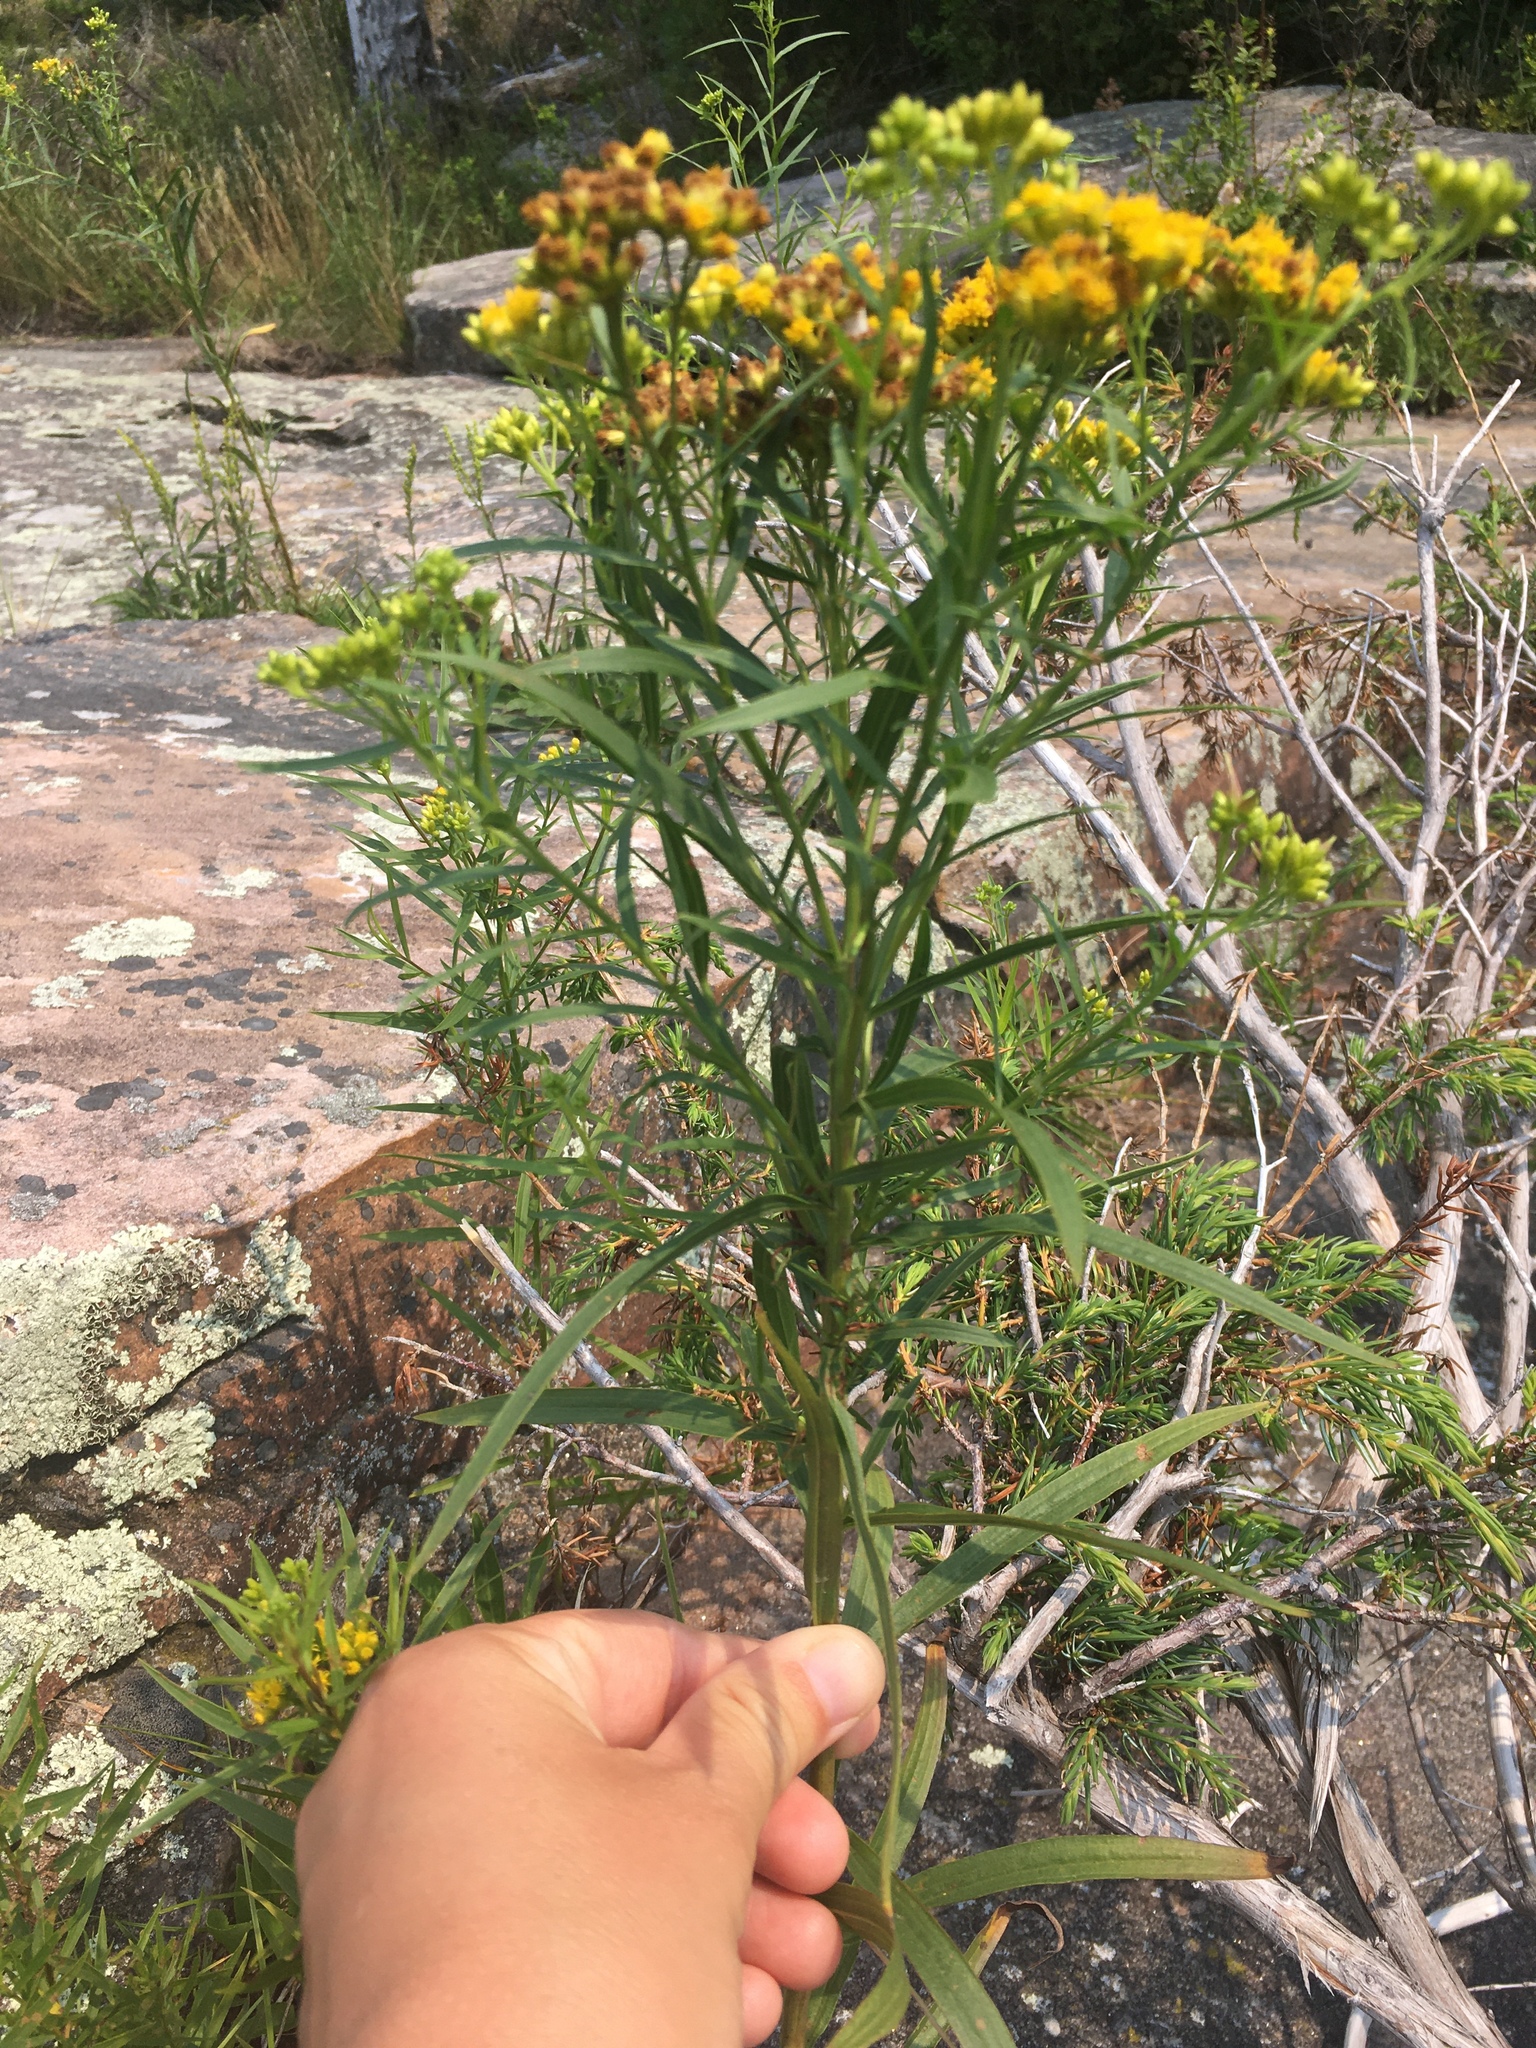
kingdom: Plantae
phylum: Tracheophyta
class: Magnoliopsida
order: Asterales
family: Asteraceae
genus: Euthamia
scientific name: Euthamia graminifolia
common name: Common goldentop
